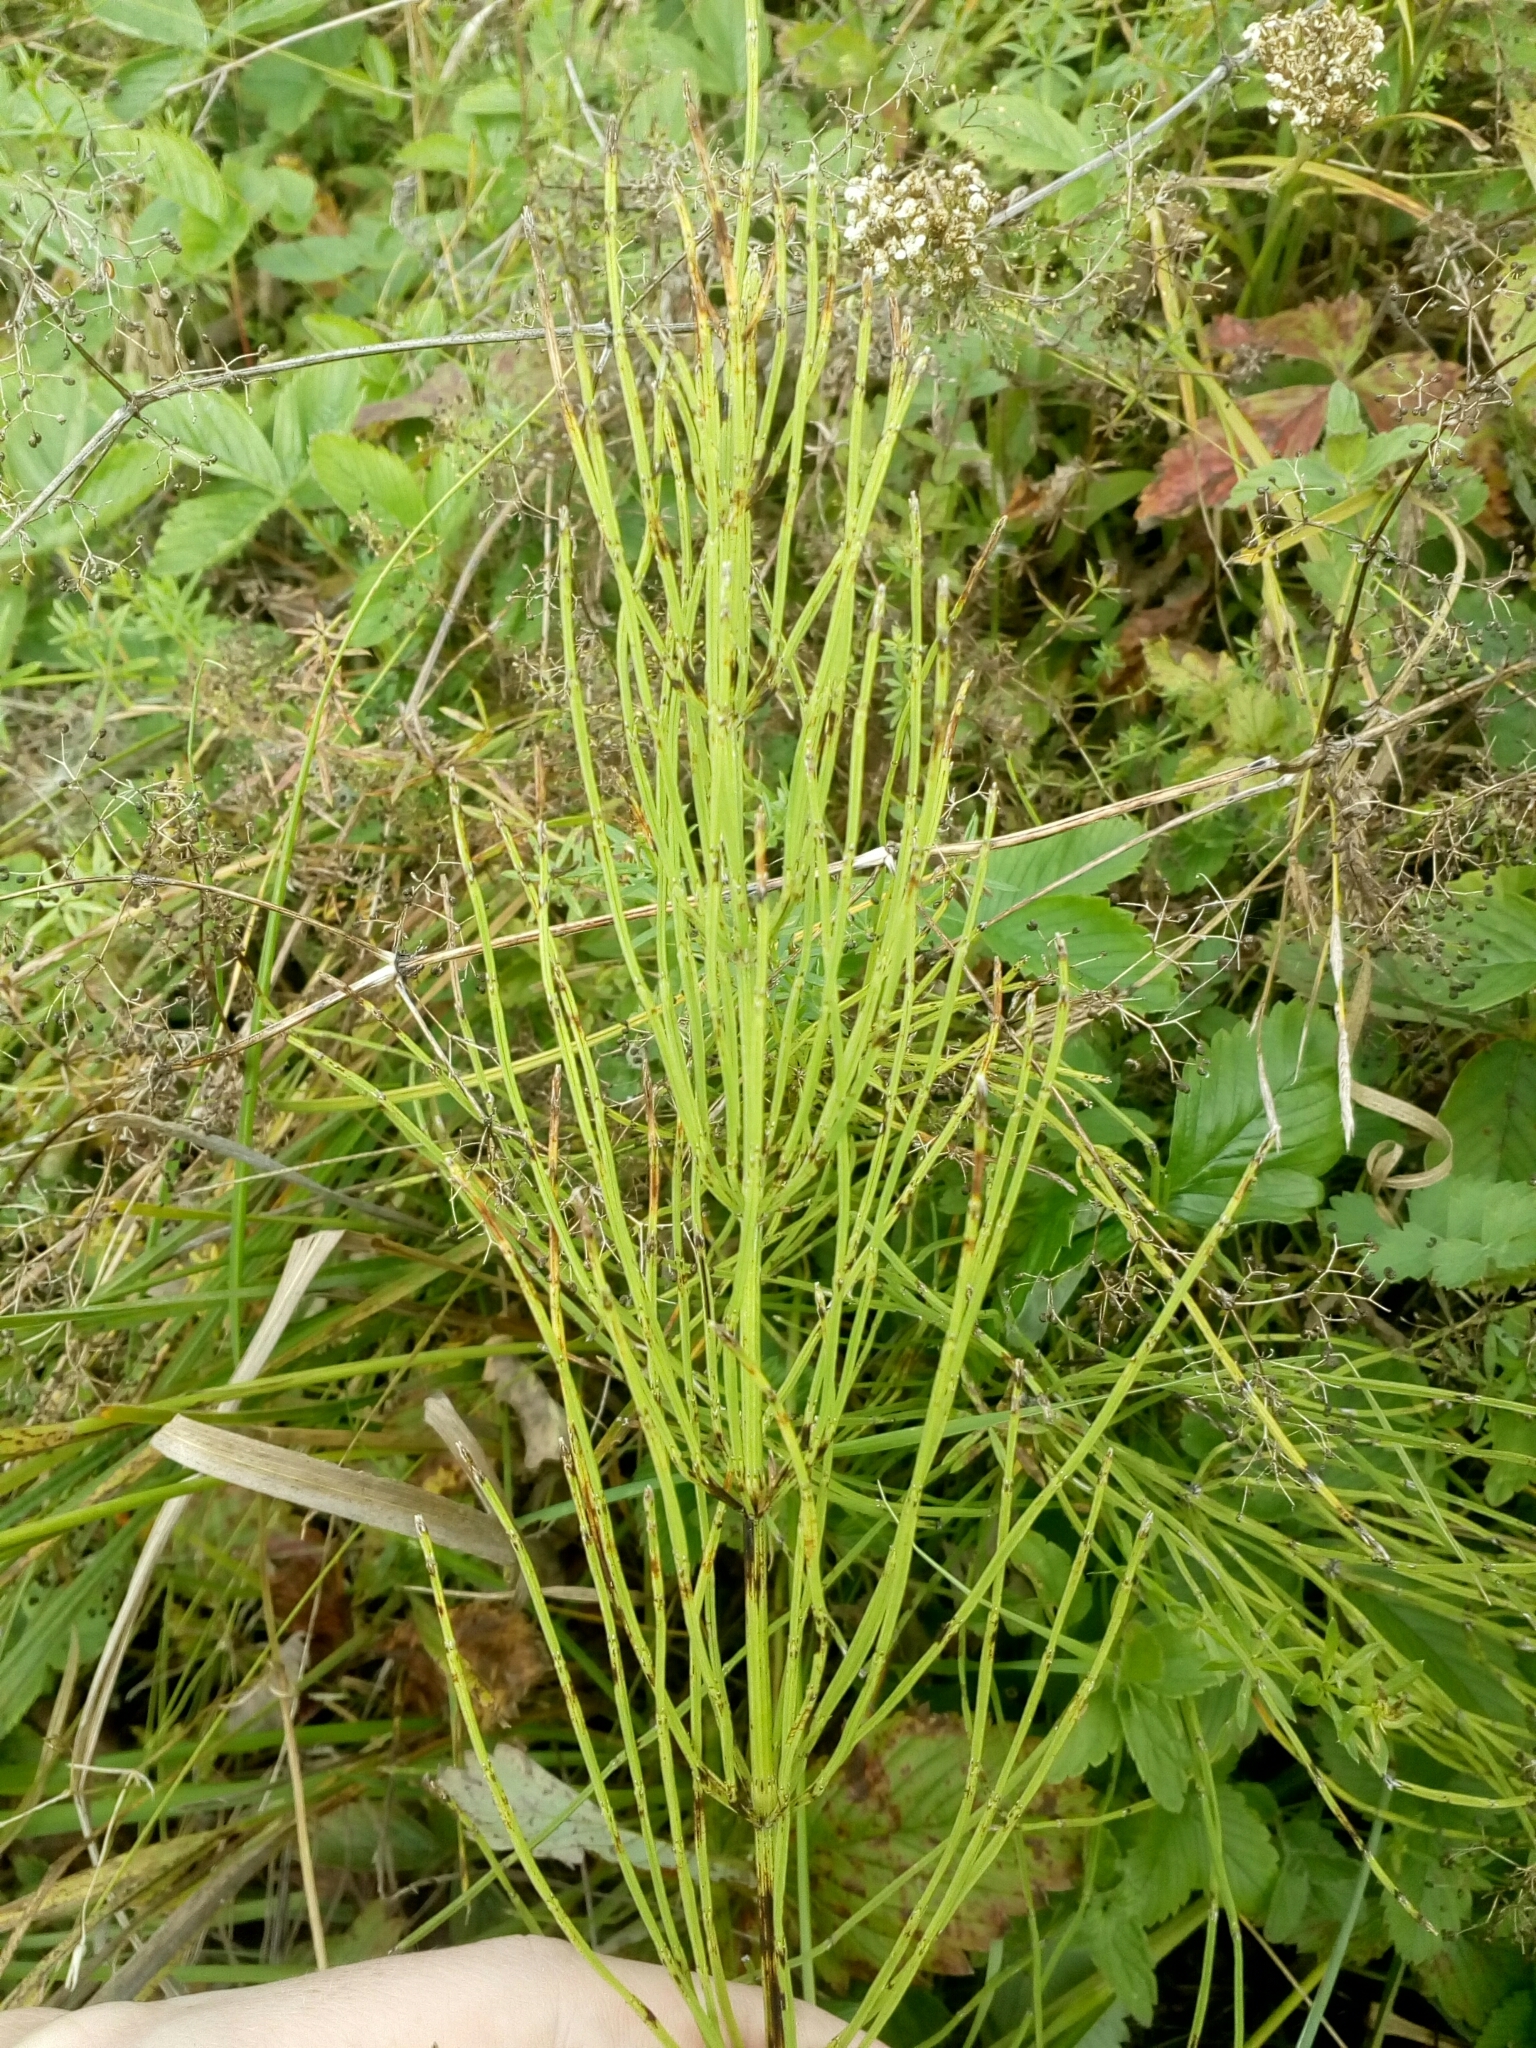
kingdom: Plantae
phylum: Tracheophyta
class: Polypodiopsida
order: Equisetales
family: Equisetaceae
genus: Equisetum
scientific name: Equisetum arvense
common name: Field horsetail
